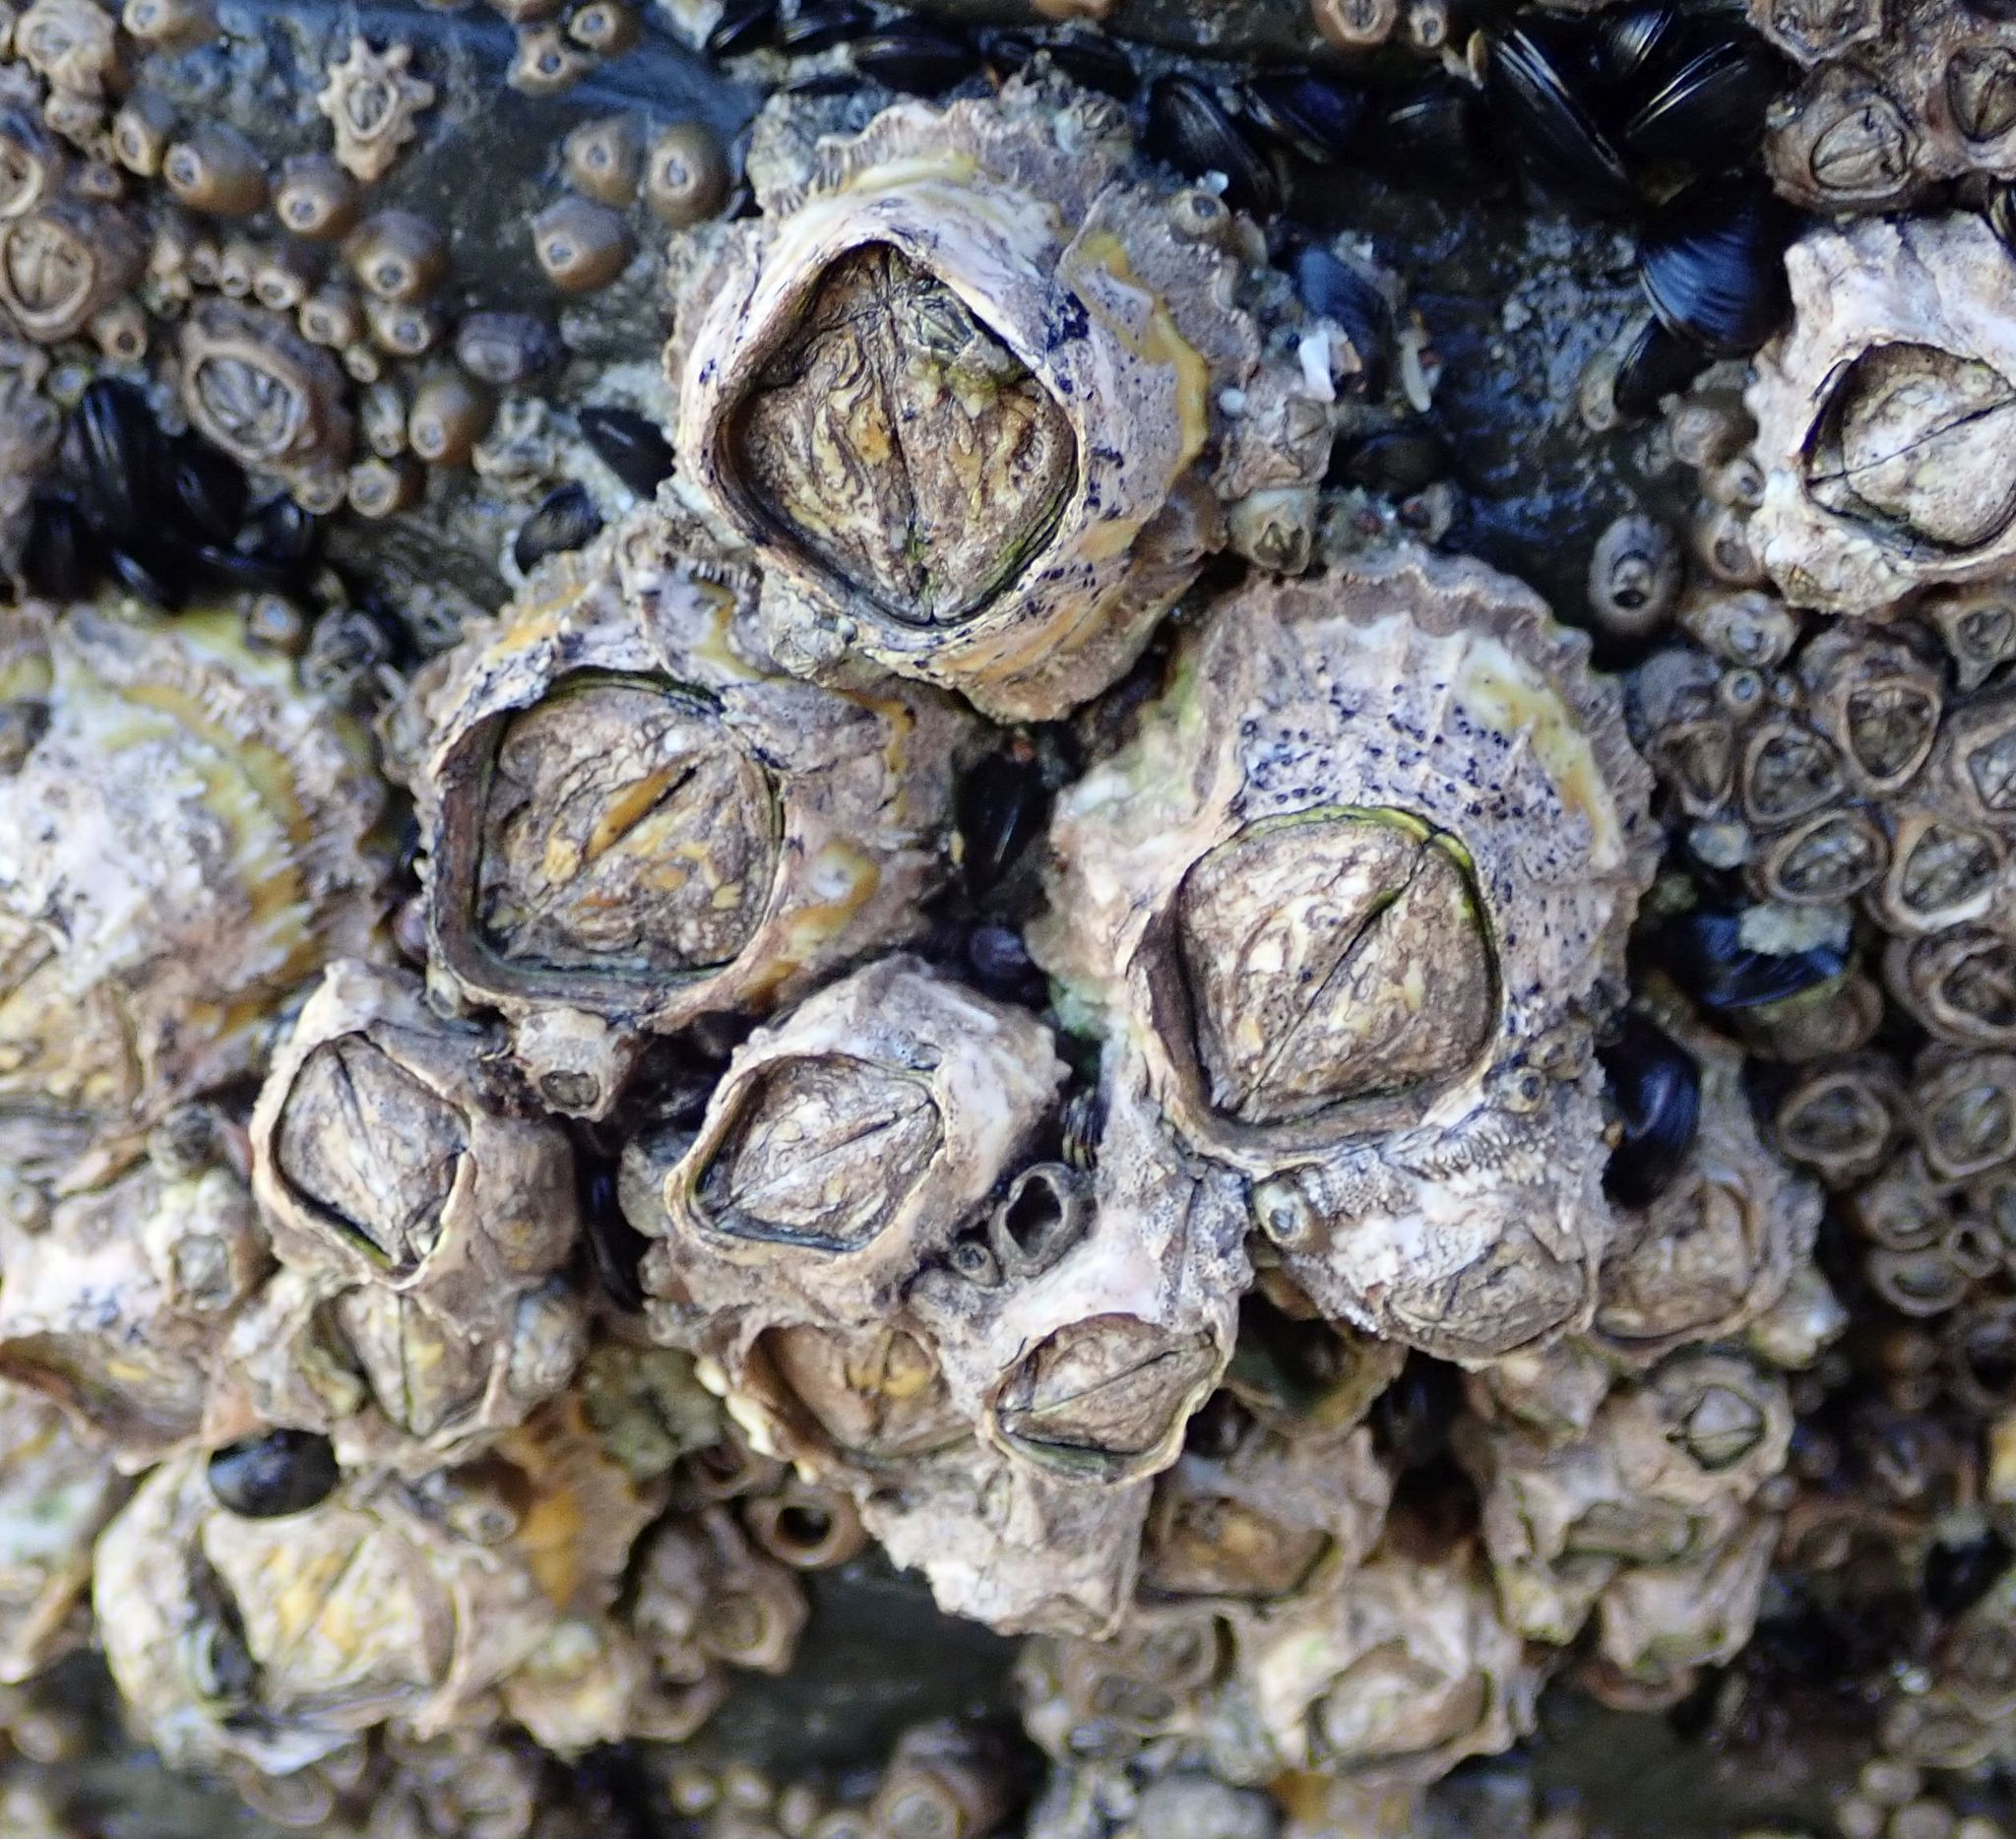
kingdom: Animalia
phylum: Arthropoda
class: Maxillopoda
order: Sessilia
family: Tetraclitidae
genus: Epopella
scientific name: Epopella plicata
